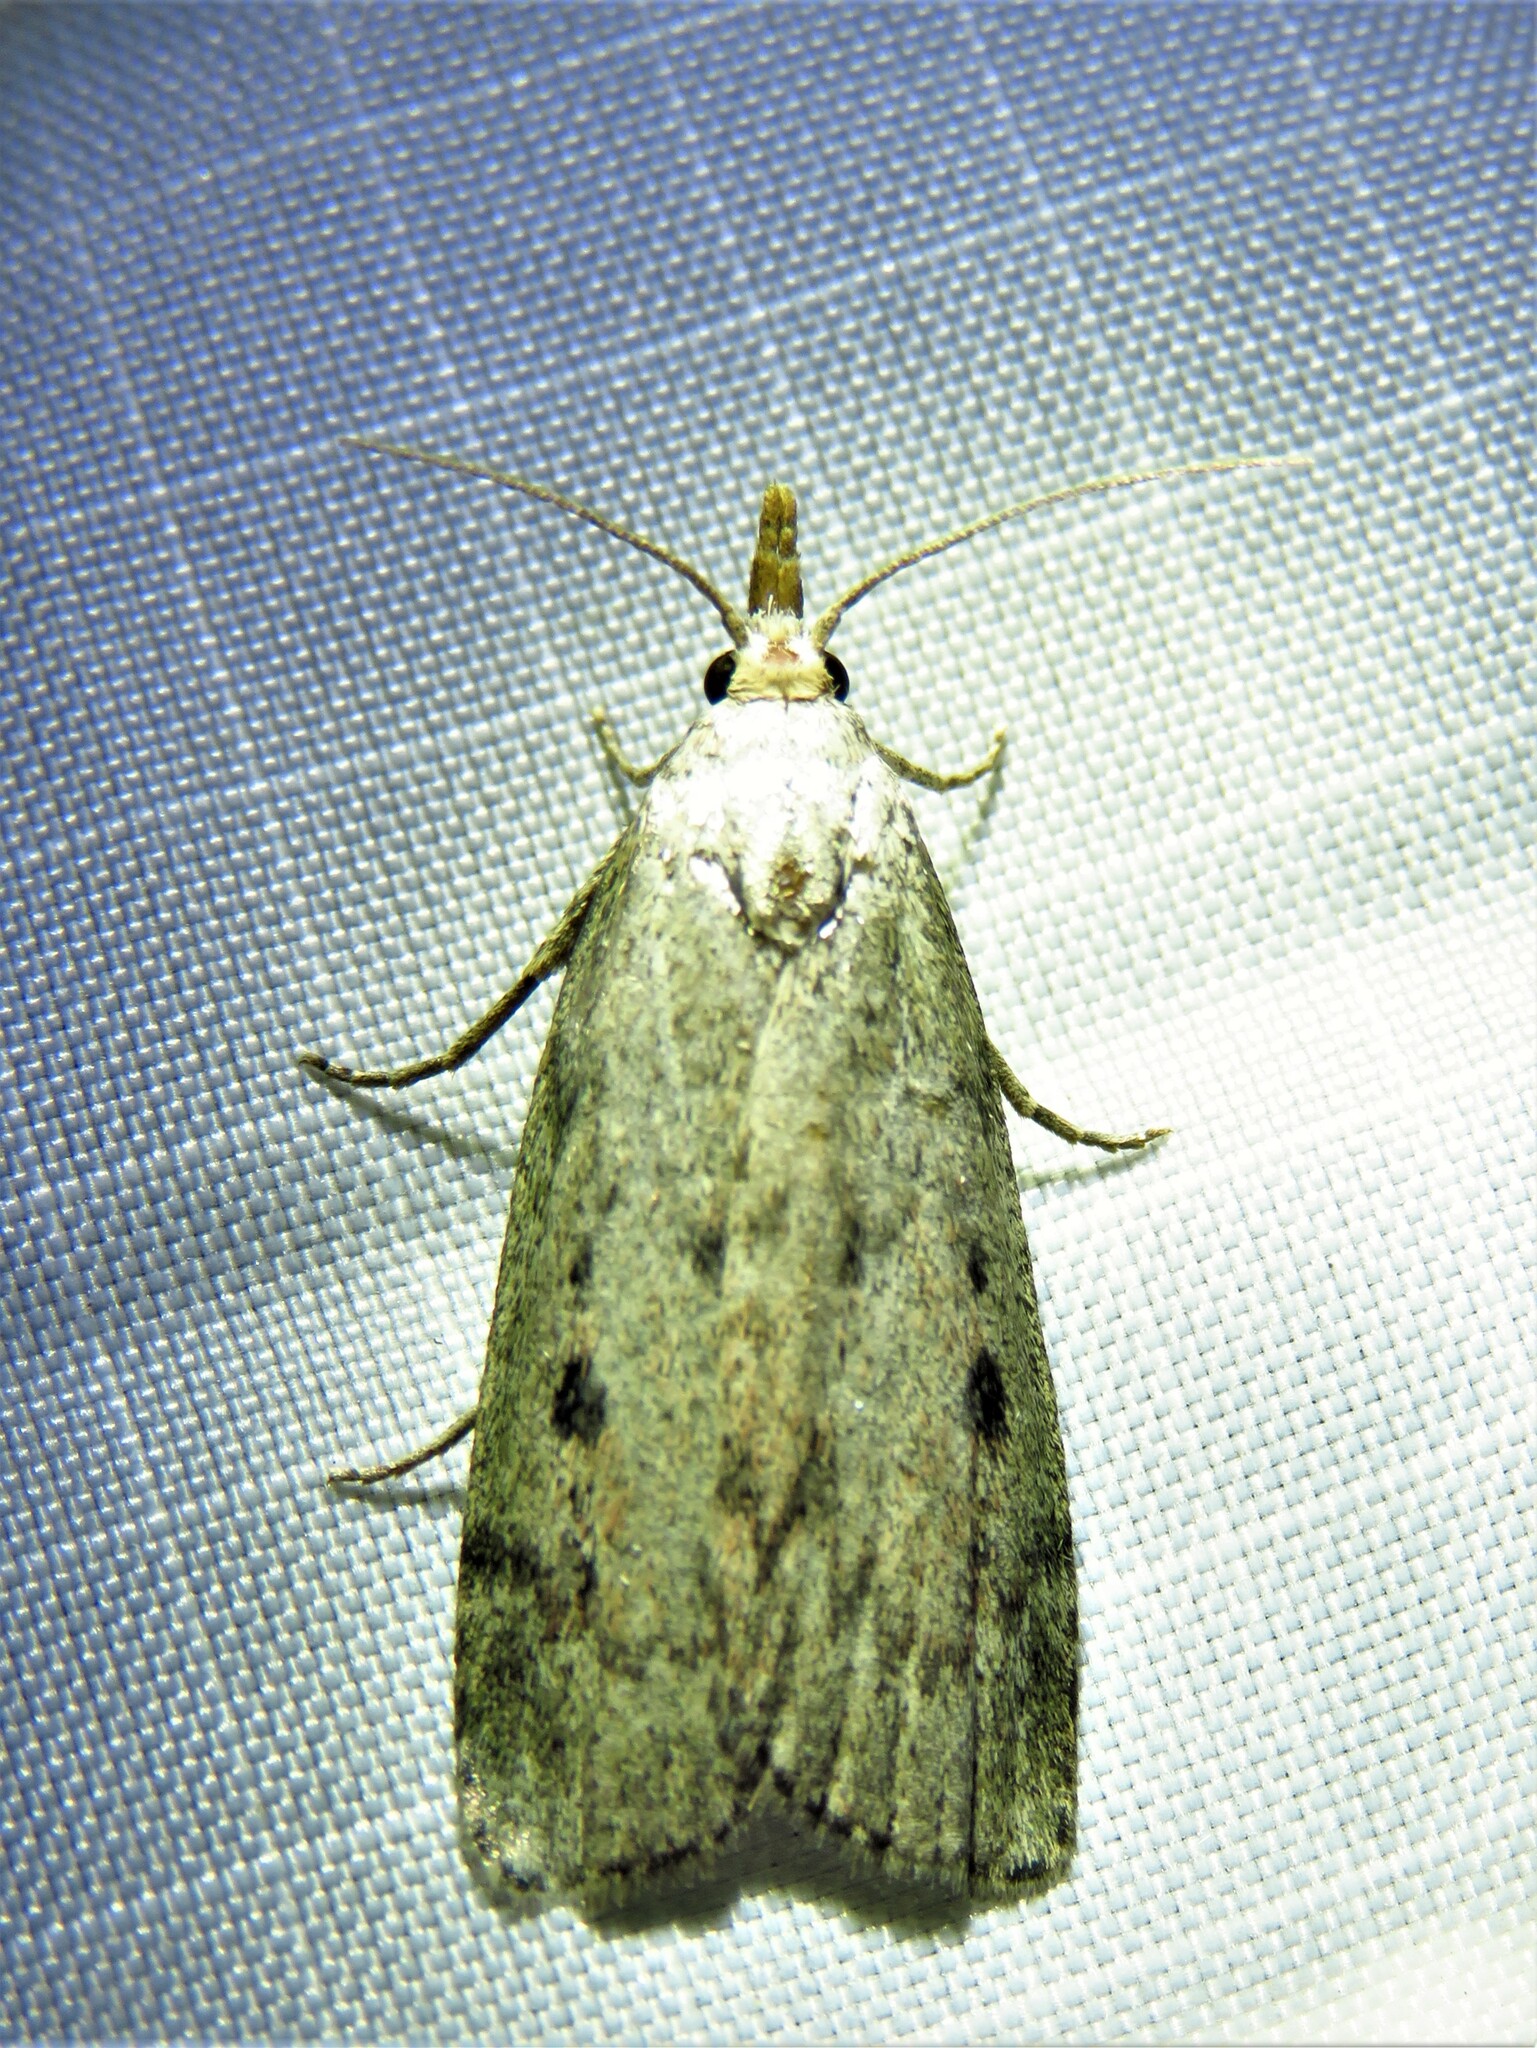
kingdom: Animalia
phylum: Arthropoda
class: Insecta
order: Lepidoptera
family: Pyralidae
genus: Aphomia
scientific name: Aphomia sociella
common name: Bee moth
